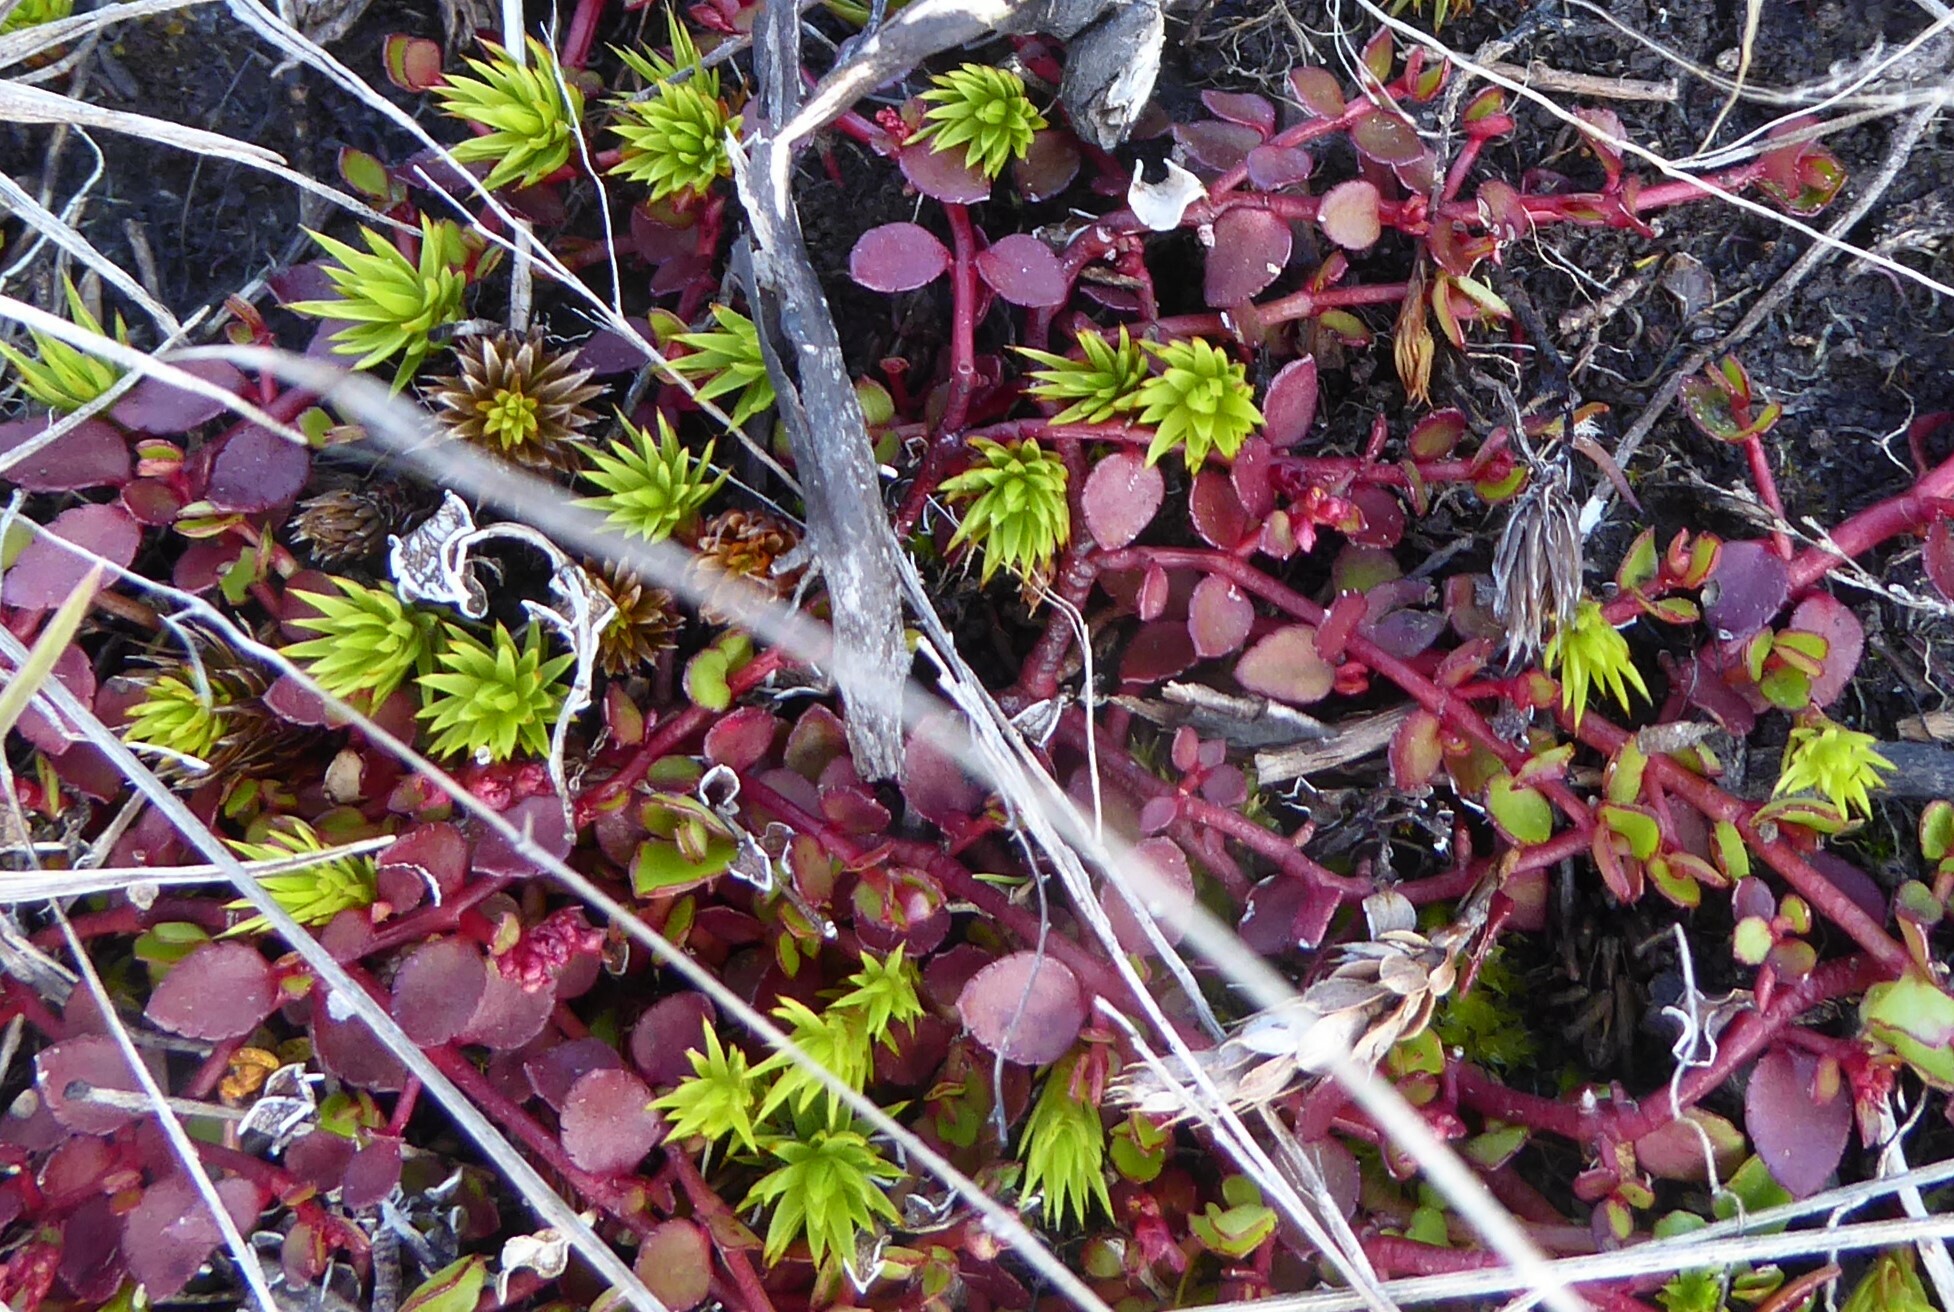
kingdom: Plantae
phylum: Tracheophyta
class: Magnoliopsida
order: Saxifragales
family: Haloragaceae
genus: Gonocarpus
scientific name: Gonocarpus micranthus
